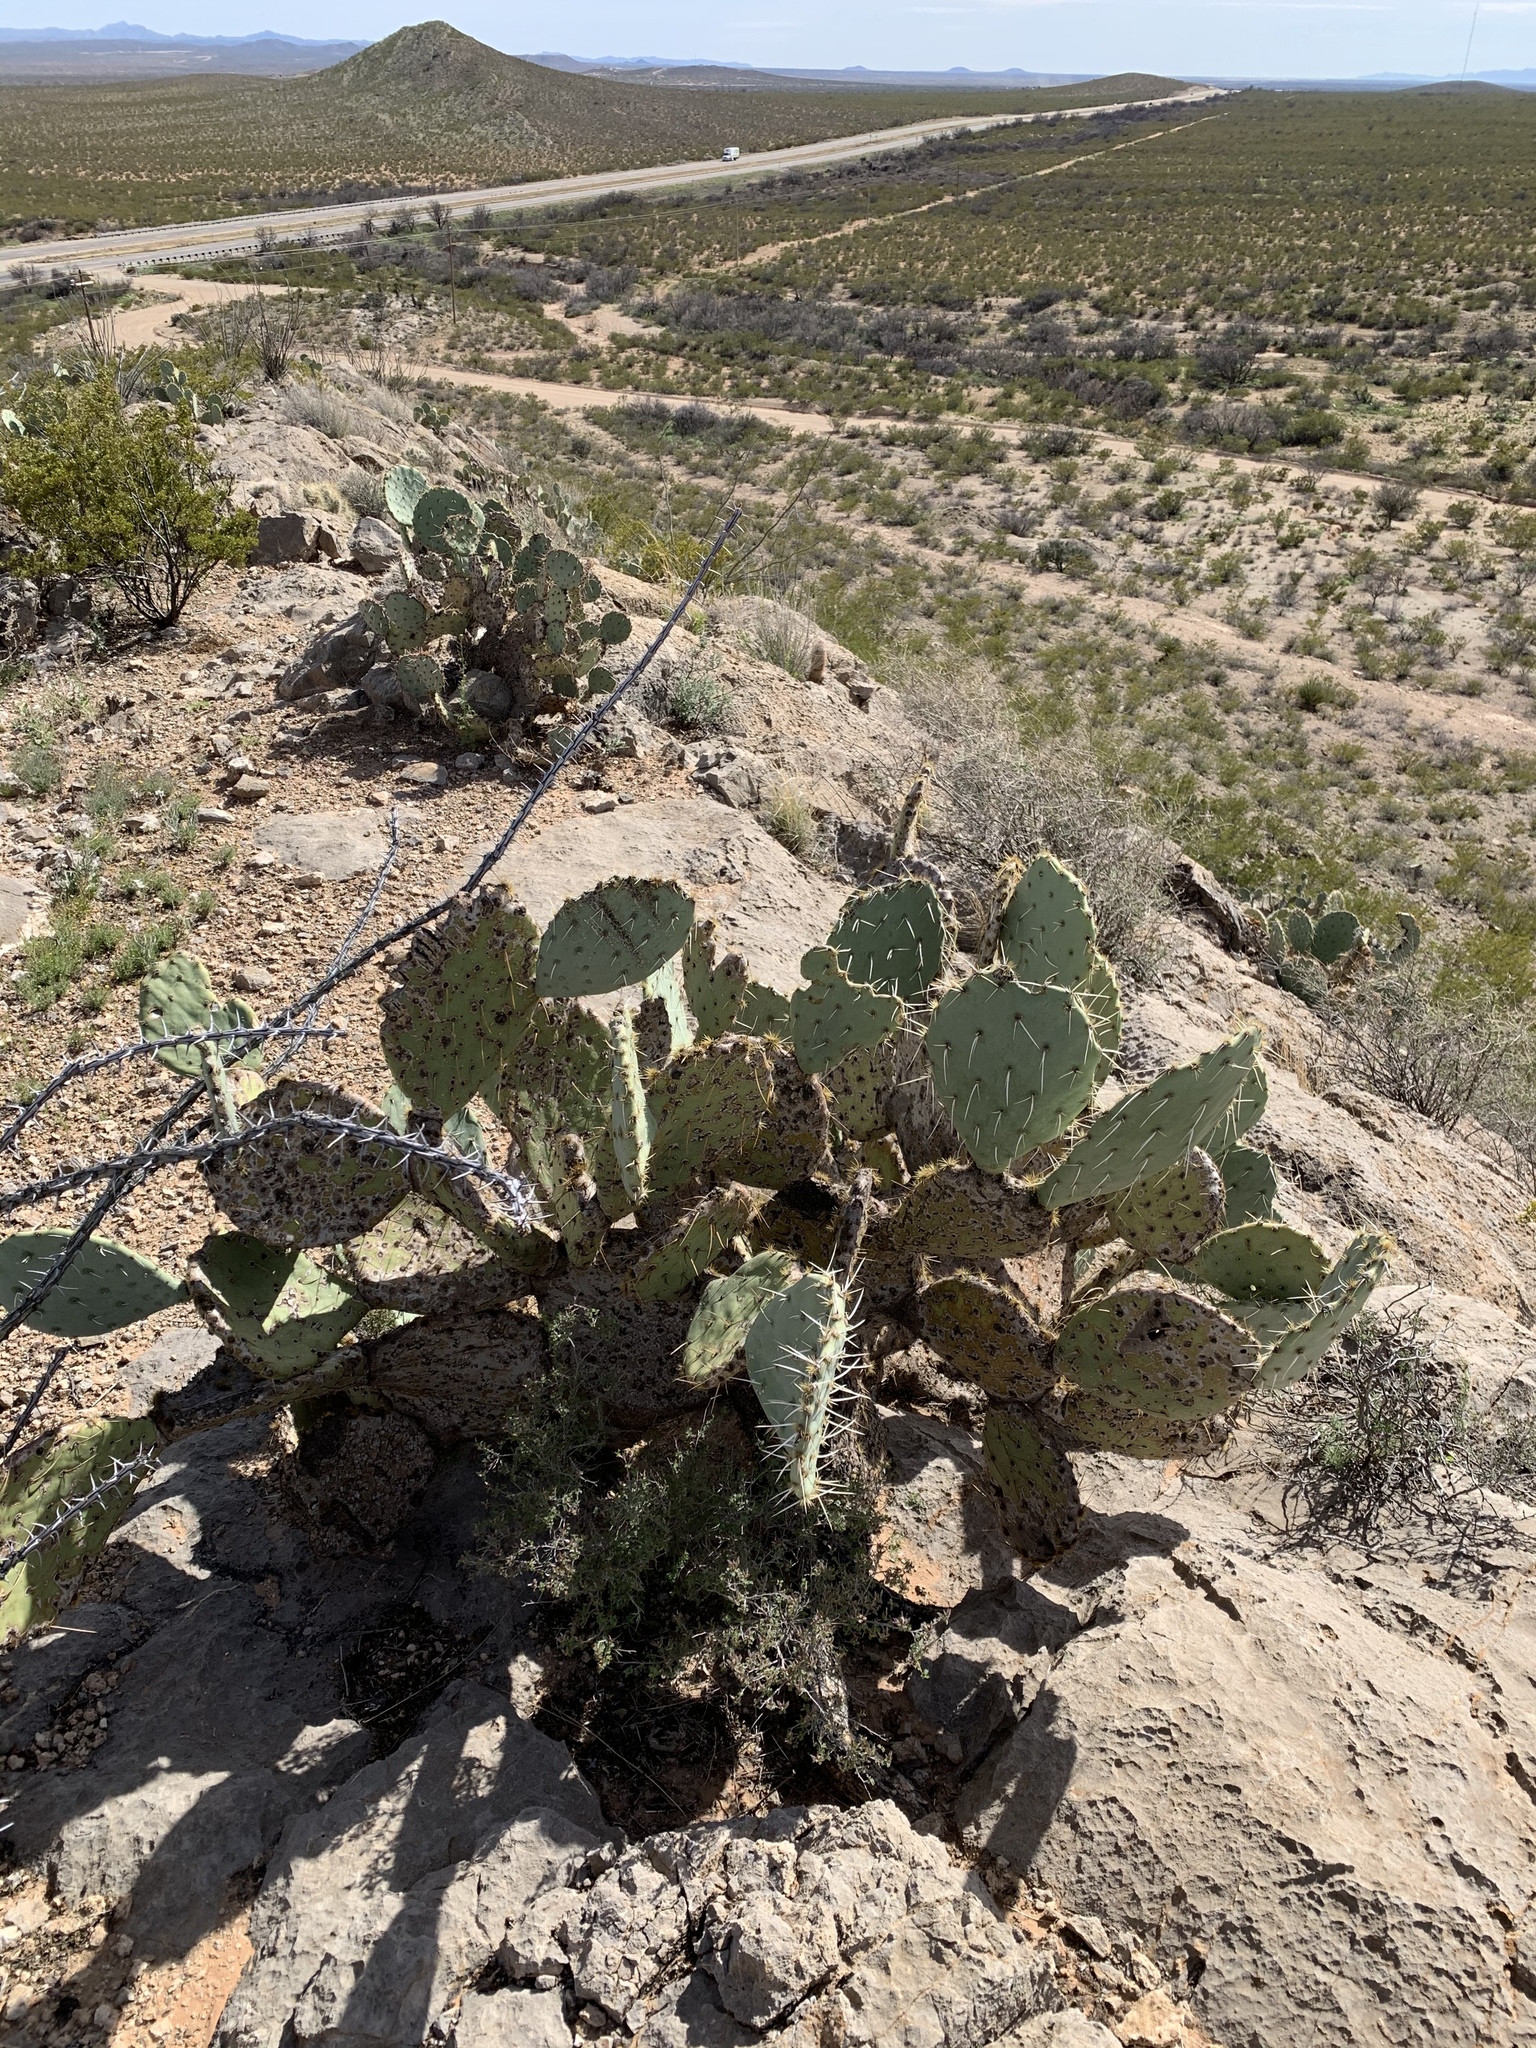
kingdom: Plantae
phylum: Tracheophyta
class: Magnoliopsida
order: Caryophyllales
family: Cactaceae
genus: Opuntia
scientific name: Opuntia engelmannii
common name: Cactus-apple
